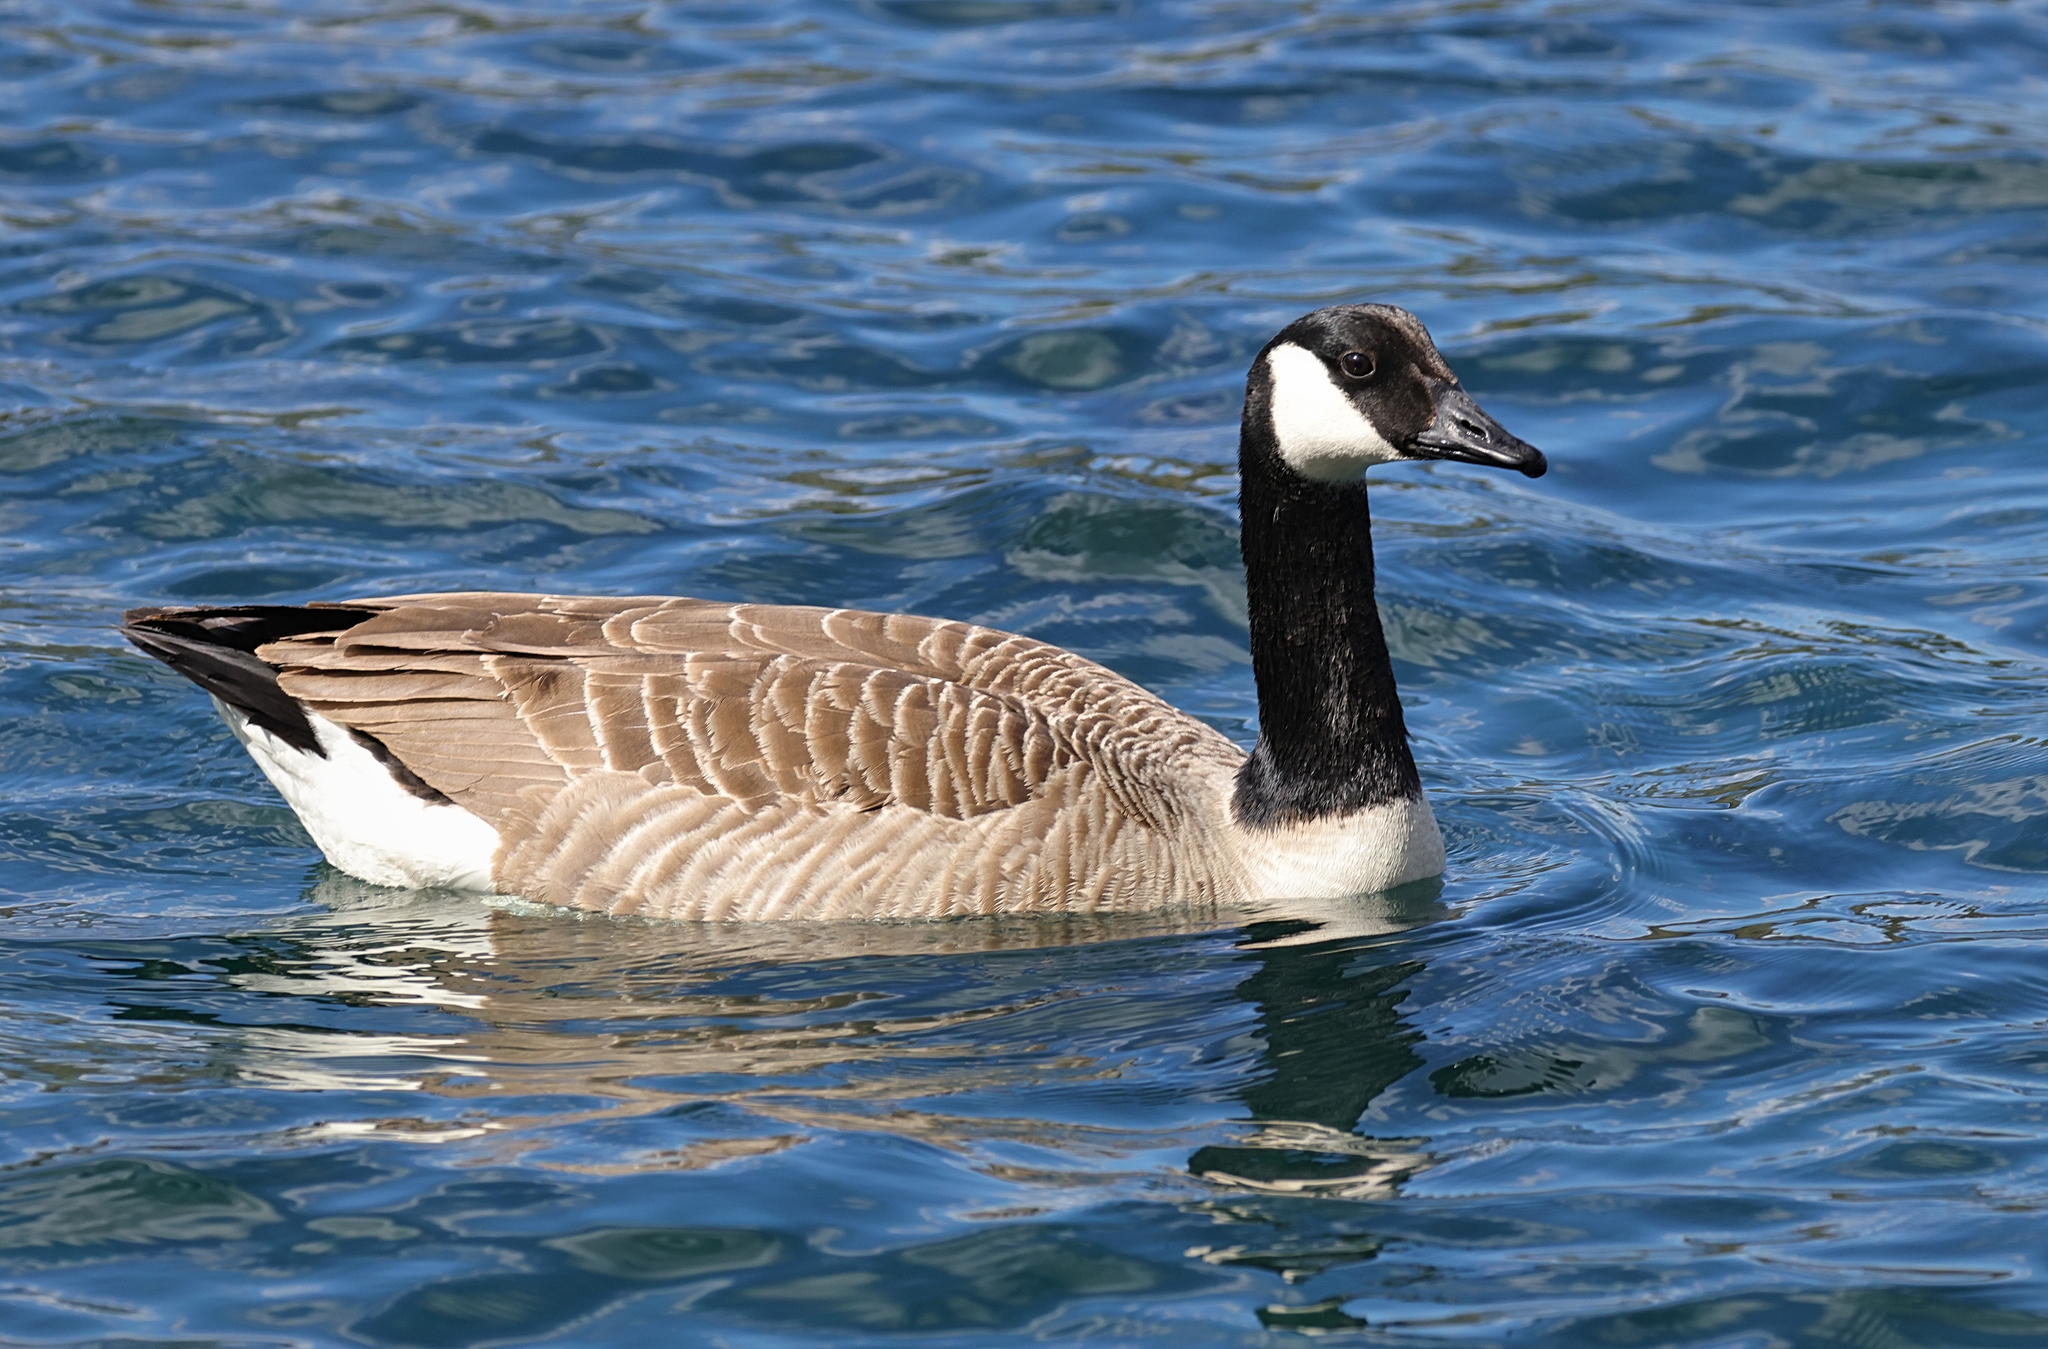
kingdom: Animalia
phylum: Chordata
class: Aves
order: Anseriformes
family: Anatidae
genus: Branta
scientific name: Branta canadensis
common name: Canada goose
